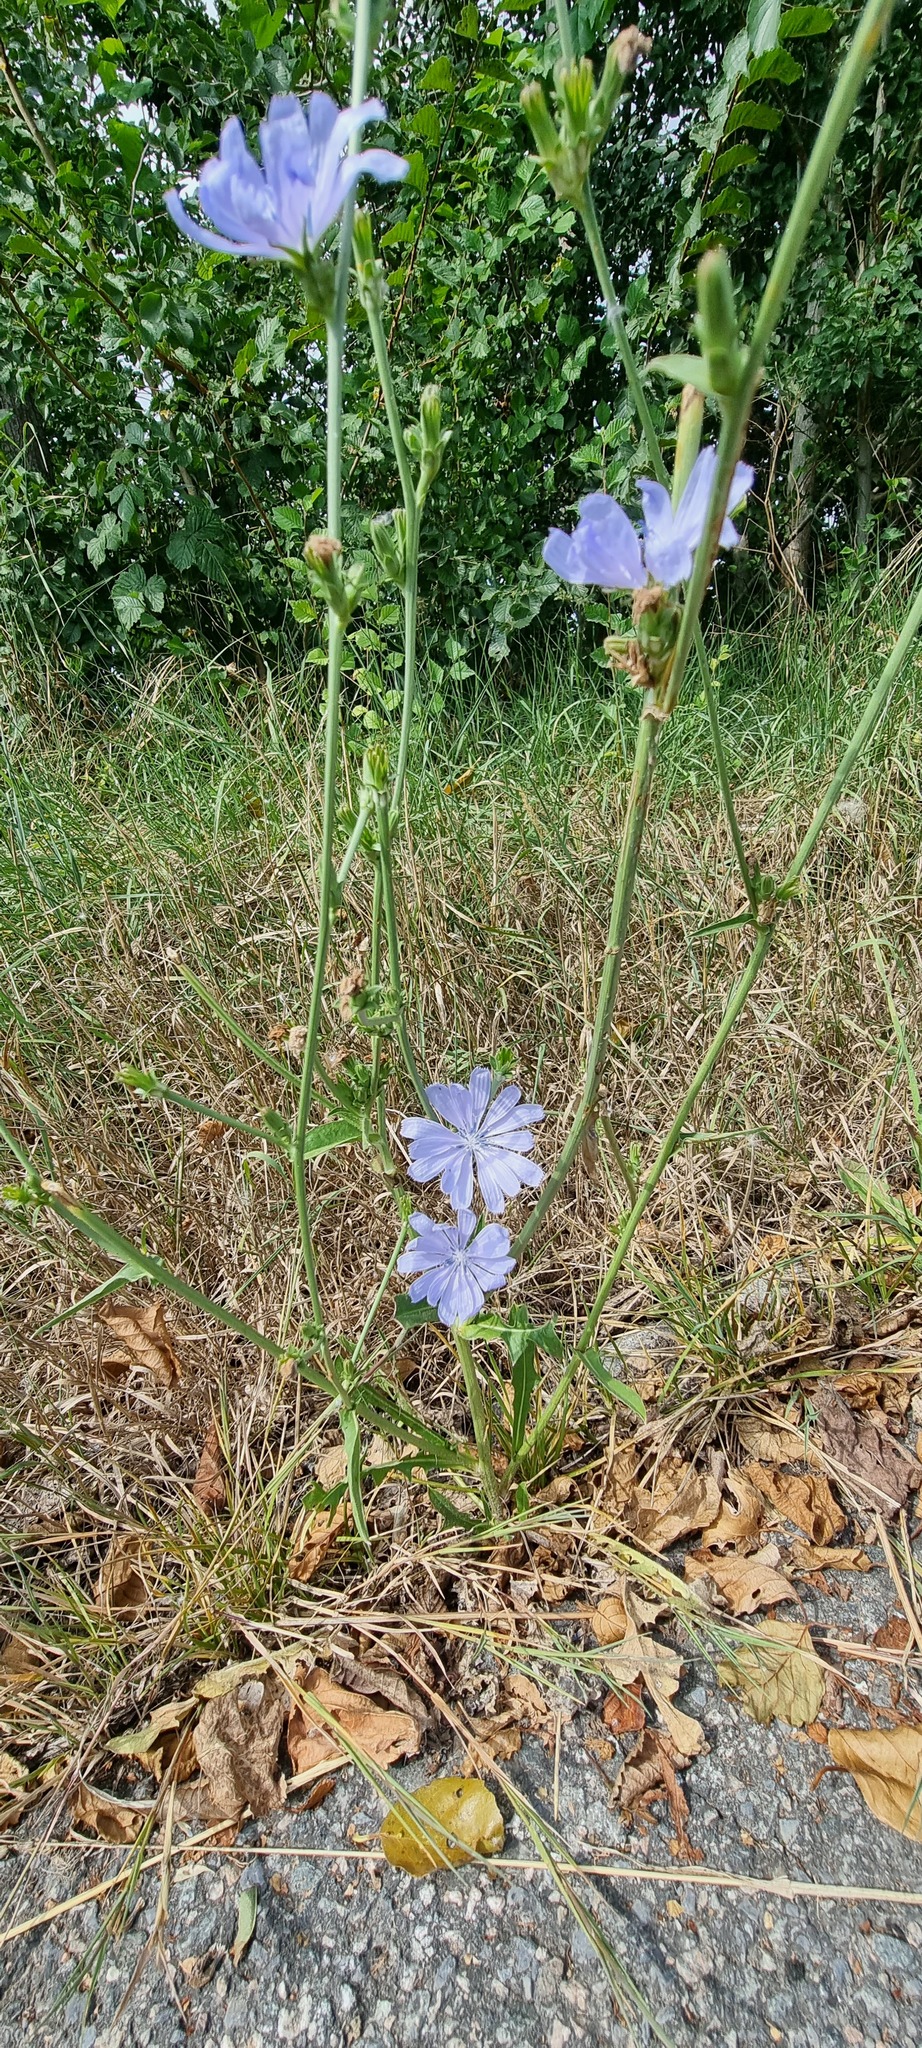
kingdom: Plantae
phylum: Tracheophyta
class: Magnoliopsida
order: Asterales
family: Asteraceae
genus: Cichorium
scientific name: Cichorium intybus
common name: Chicory
